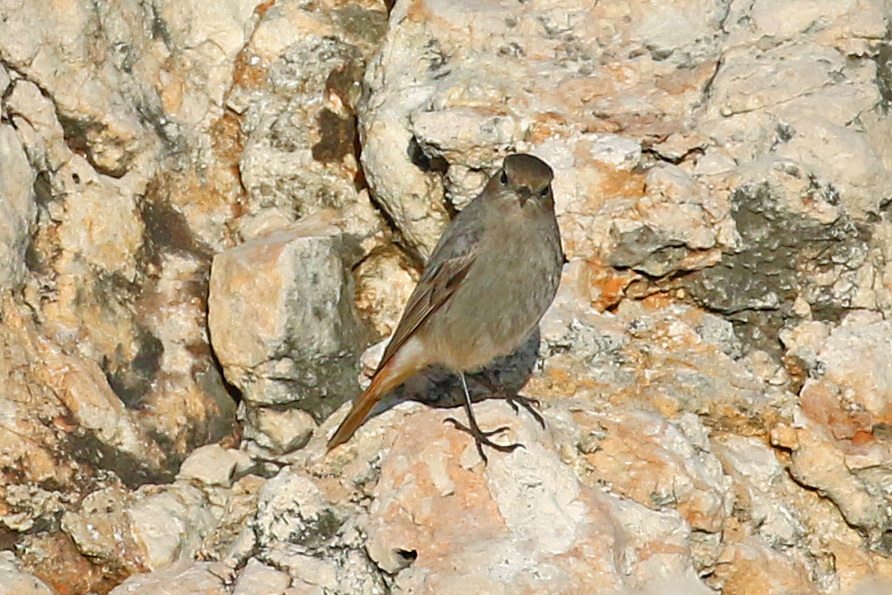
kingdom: Animalia
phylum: Chordata
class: Aves
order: Passeriformes
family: Muscicapidae
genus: Phoenicurus
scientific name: Phoenicurus ochruros
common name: Black redstart
